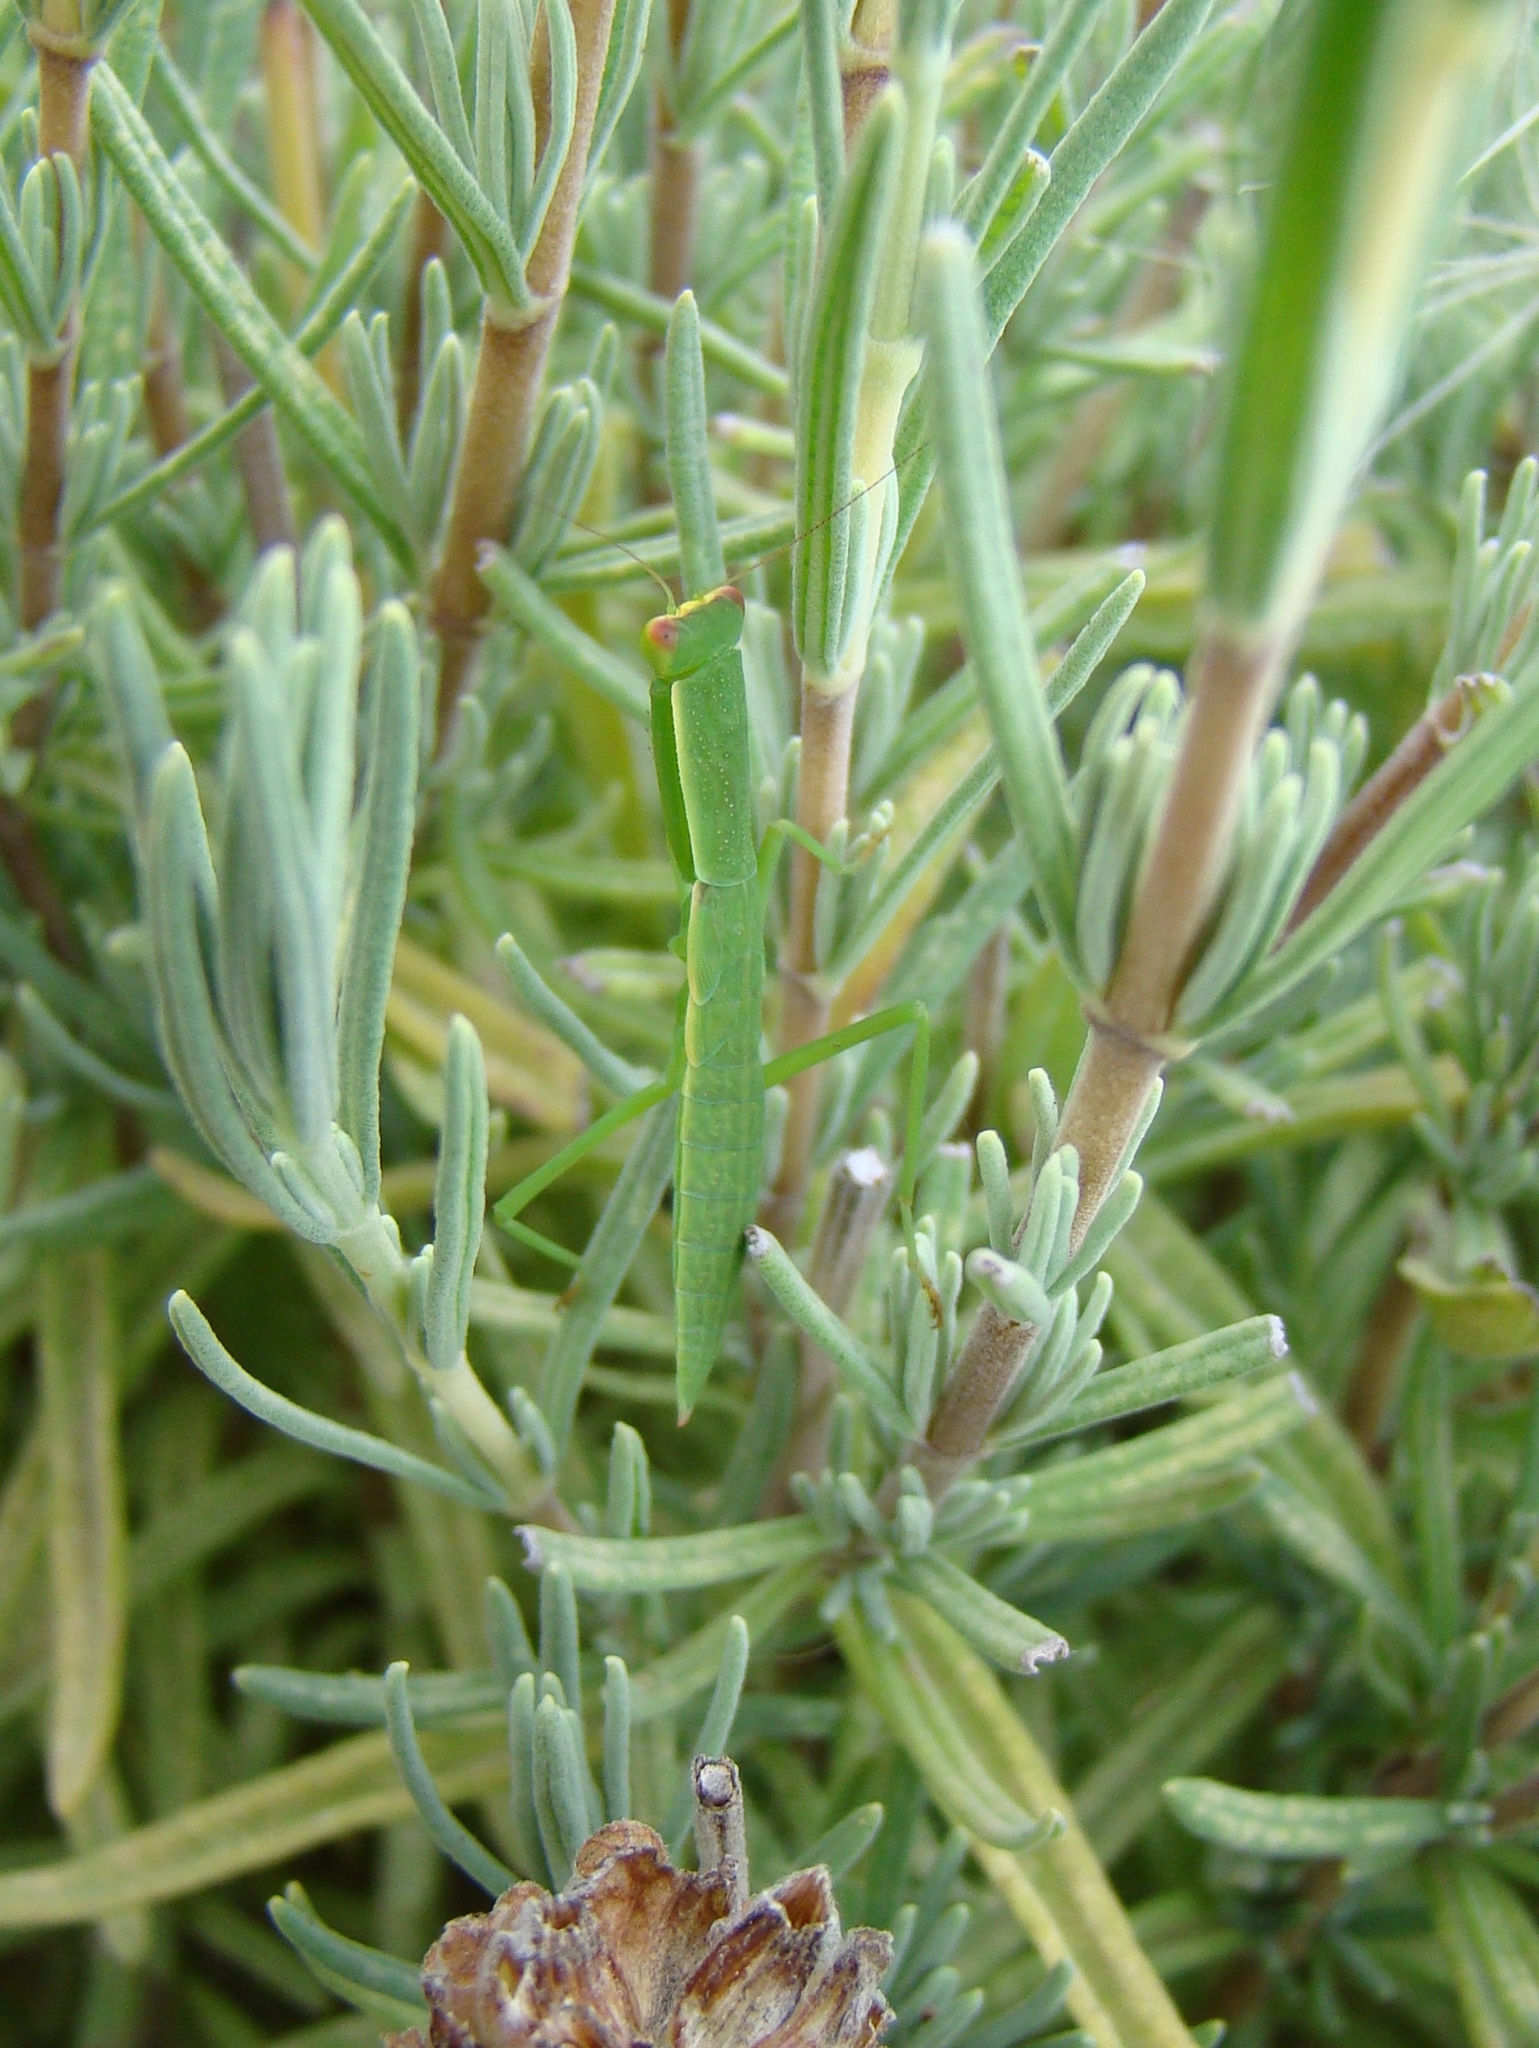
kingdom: Animalia
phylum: Arthropoda
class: Insecta
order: Mantodea
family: Mantidae
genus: Orthodera
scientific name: Orthodera novaezealandiae
